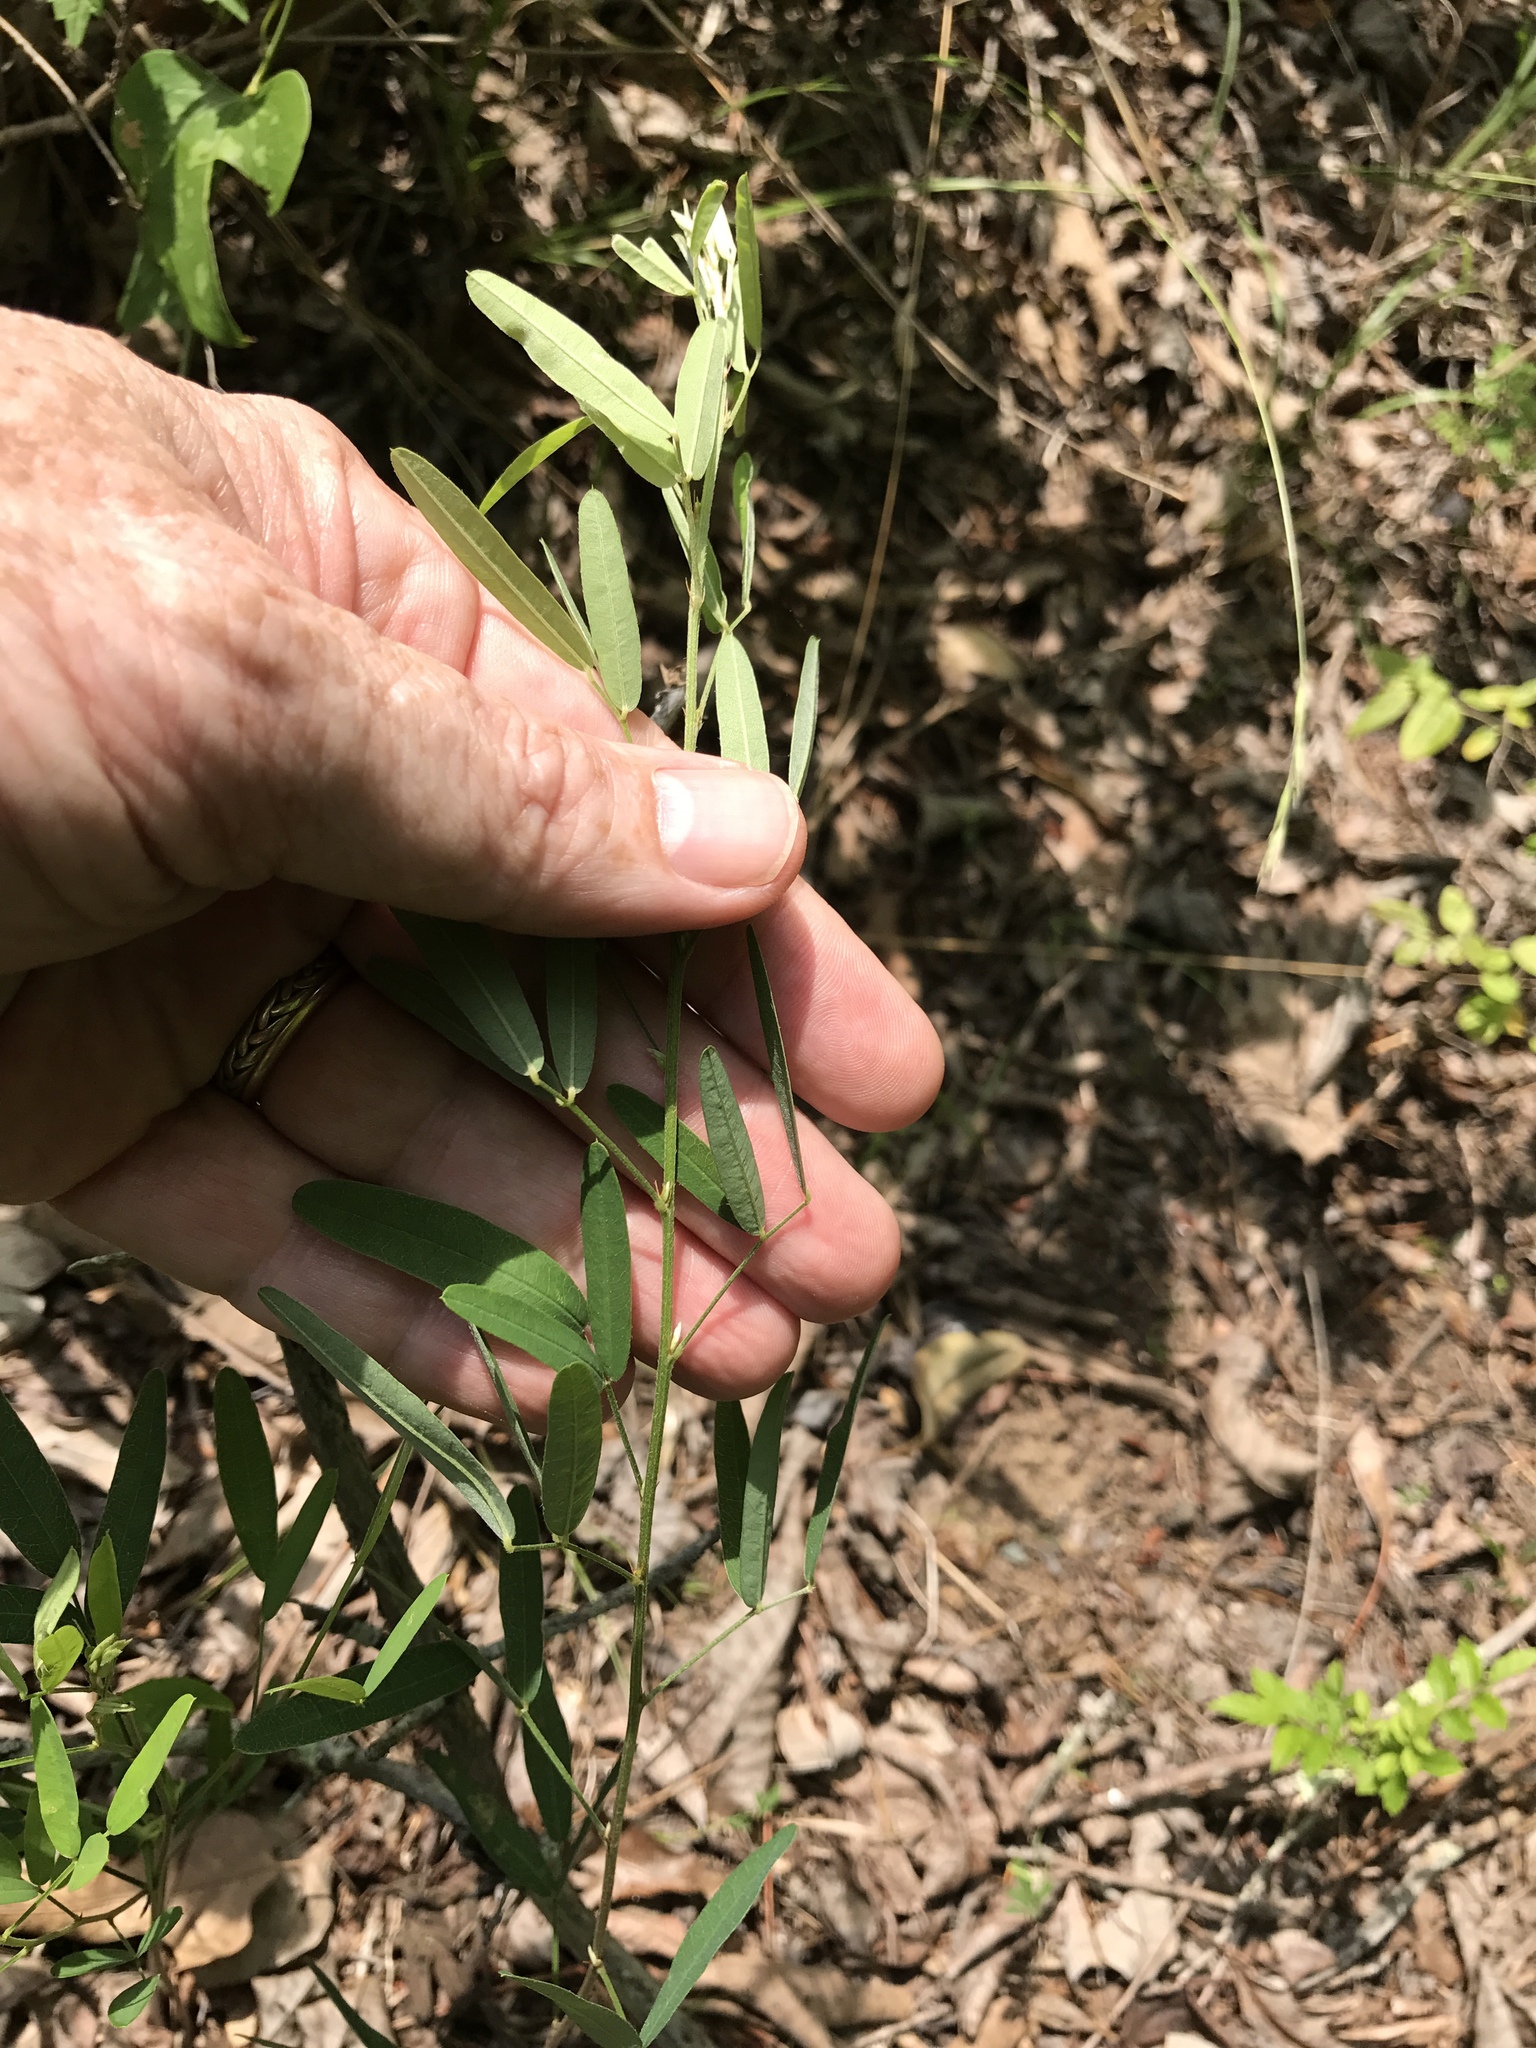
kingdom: Plantae
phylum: Tracheophyta
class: Magnoliopsida
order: Fabales
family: Fabaceae
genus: Lespedeza
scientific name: Lespedeza virginica
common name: Slender bush-clover
